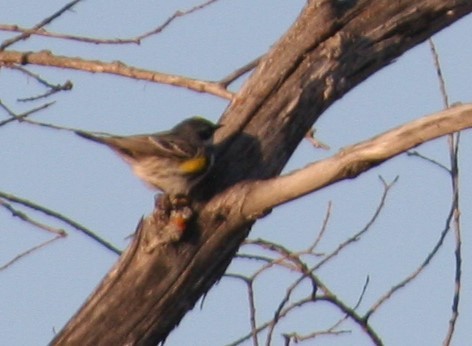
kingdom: Animalia
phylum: Chordata
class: Aves
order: Passeriformes
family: Parulidae
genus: Setophaga
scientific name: Setophaga coronata
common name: Myrtle warbler
